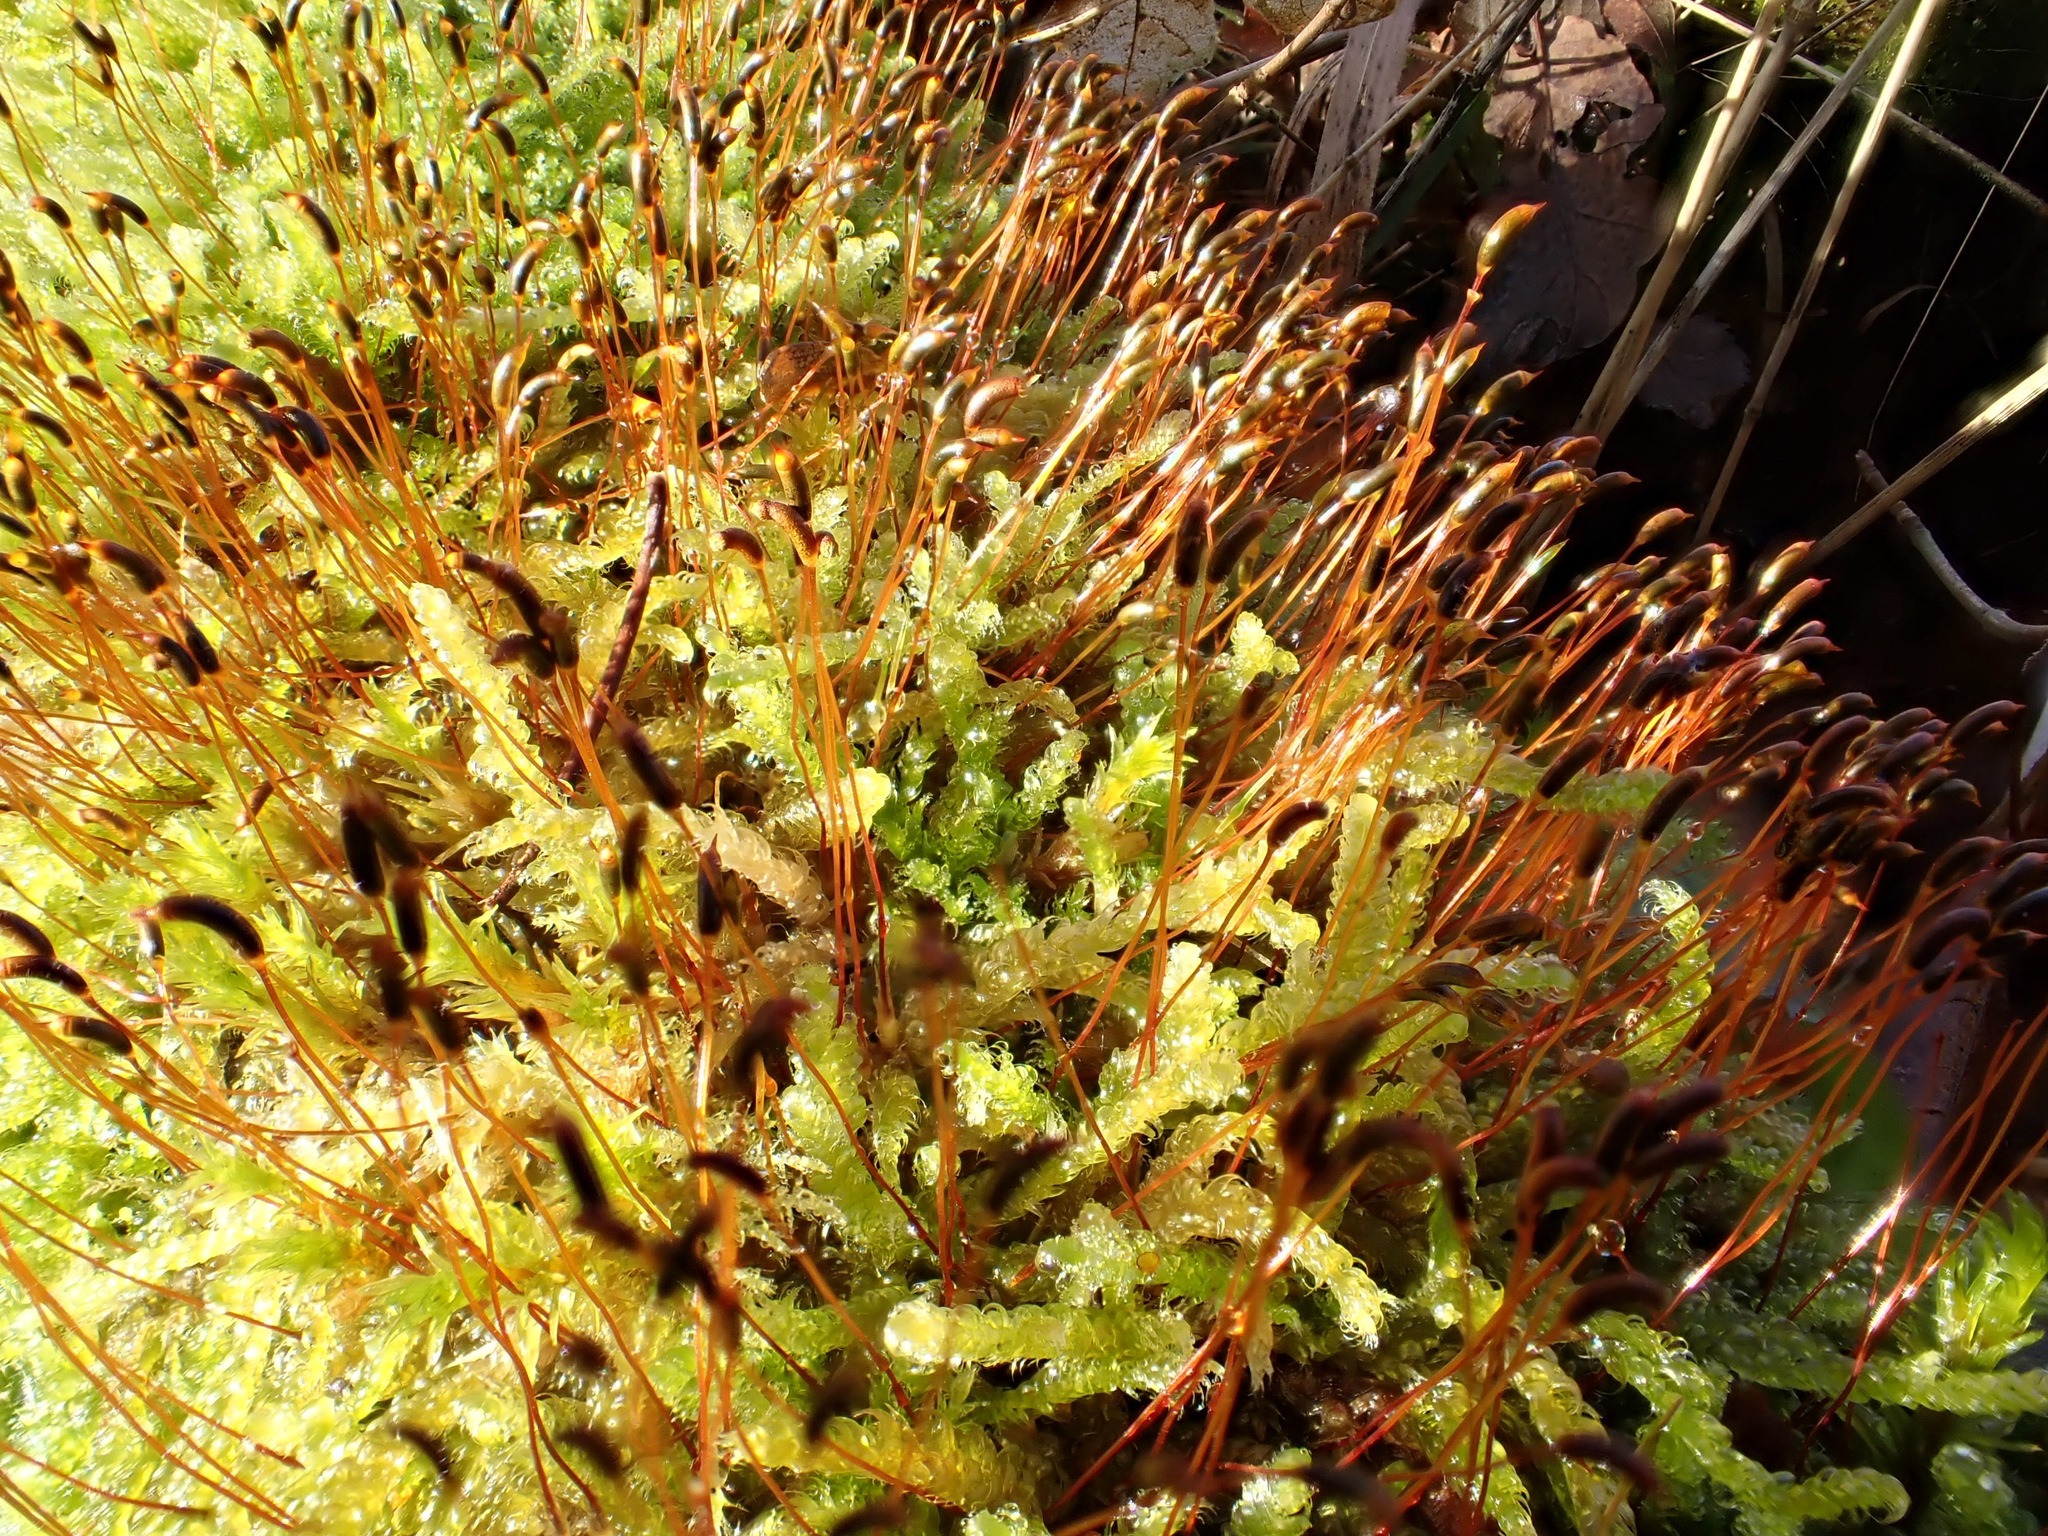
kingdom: Plantae
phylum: Bryophyta
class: Bryopsida
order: Hypnales
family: Hypnaceae
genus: Hypnum
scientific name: Hypnum cupressiforme
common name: Cypress-leaved plait-moss
